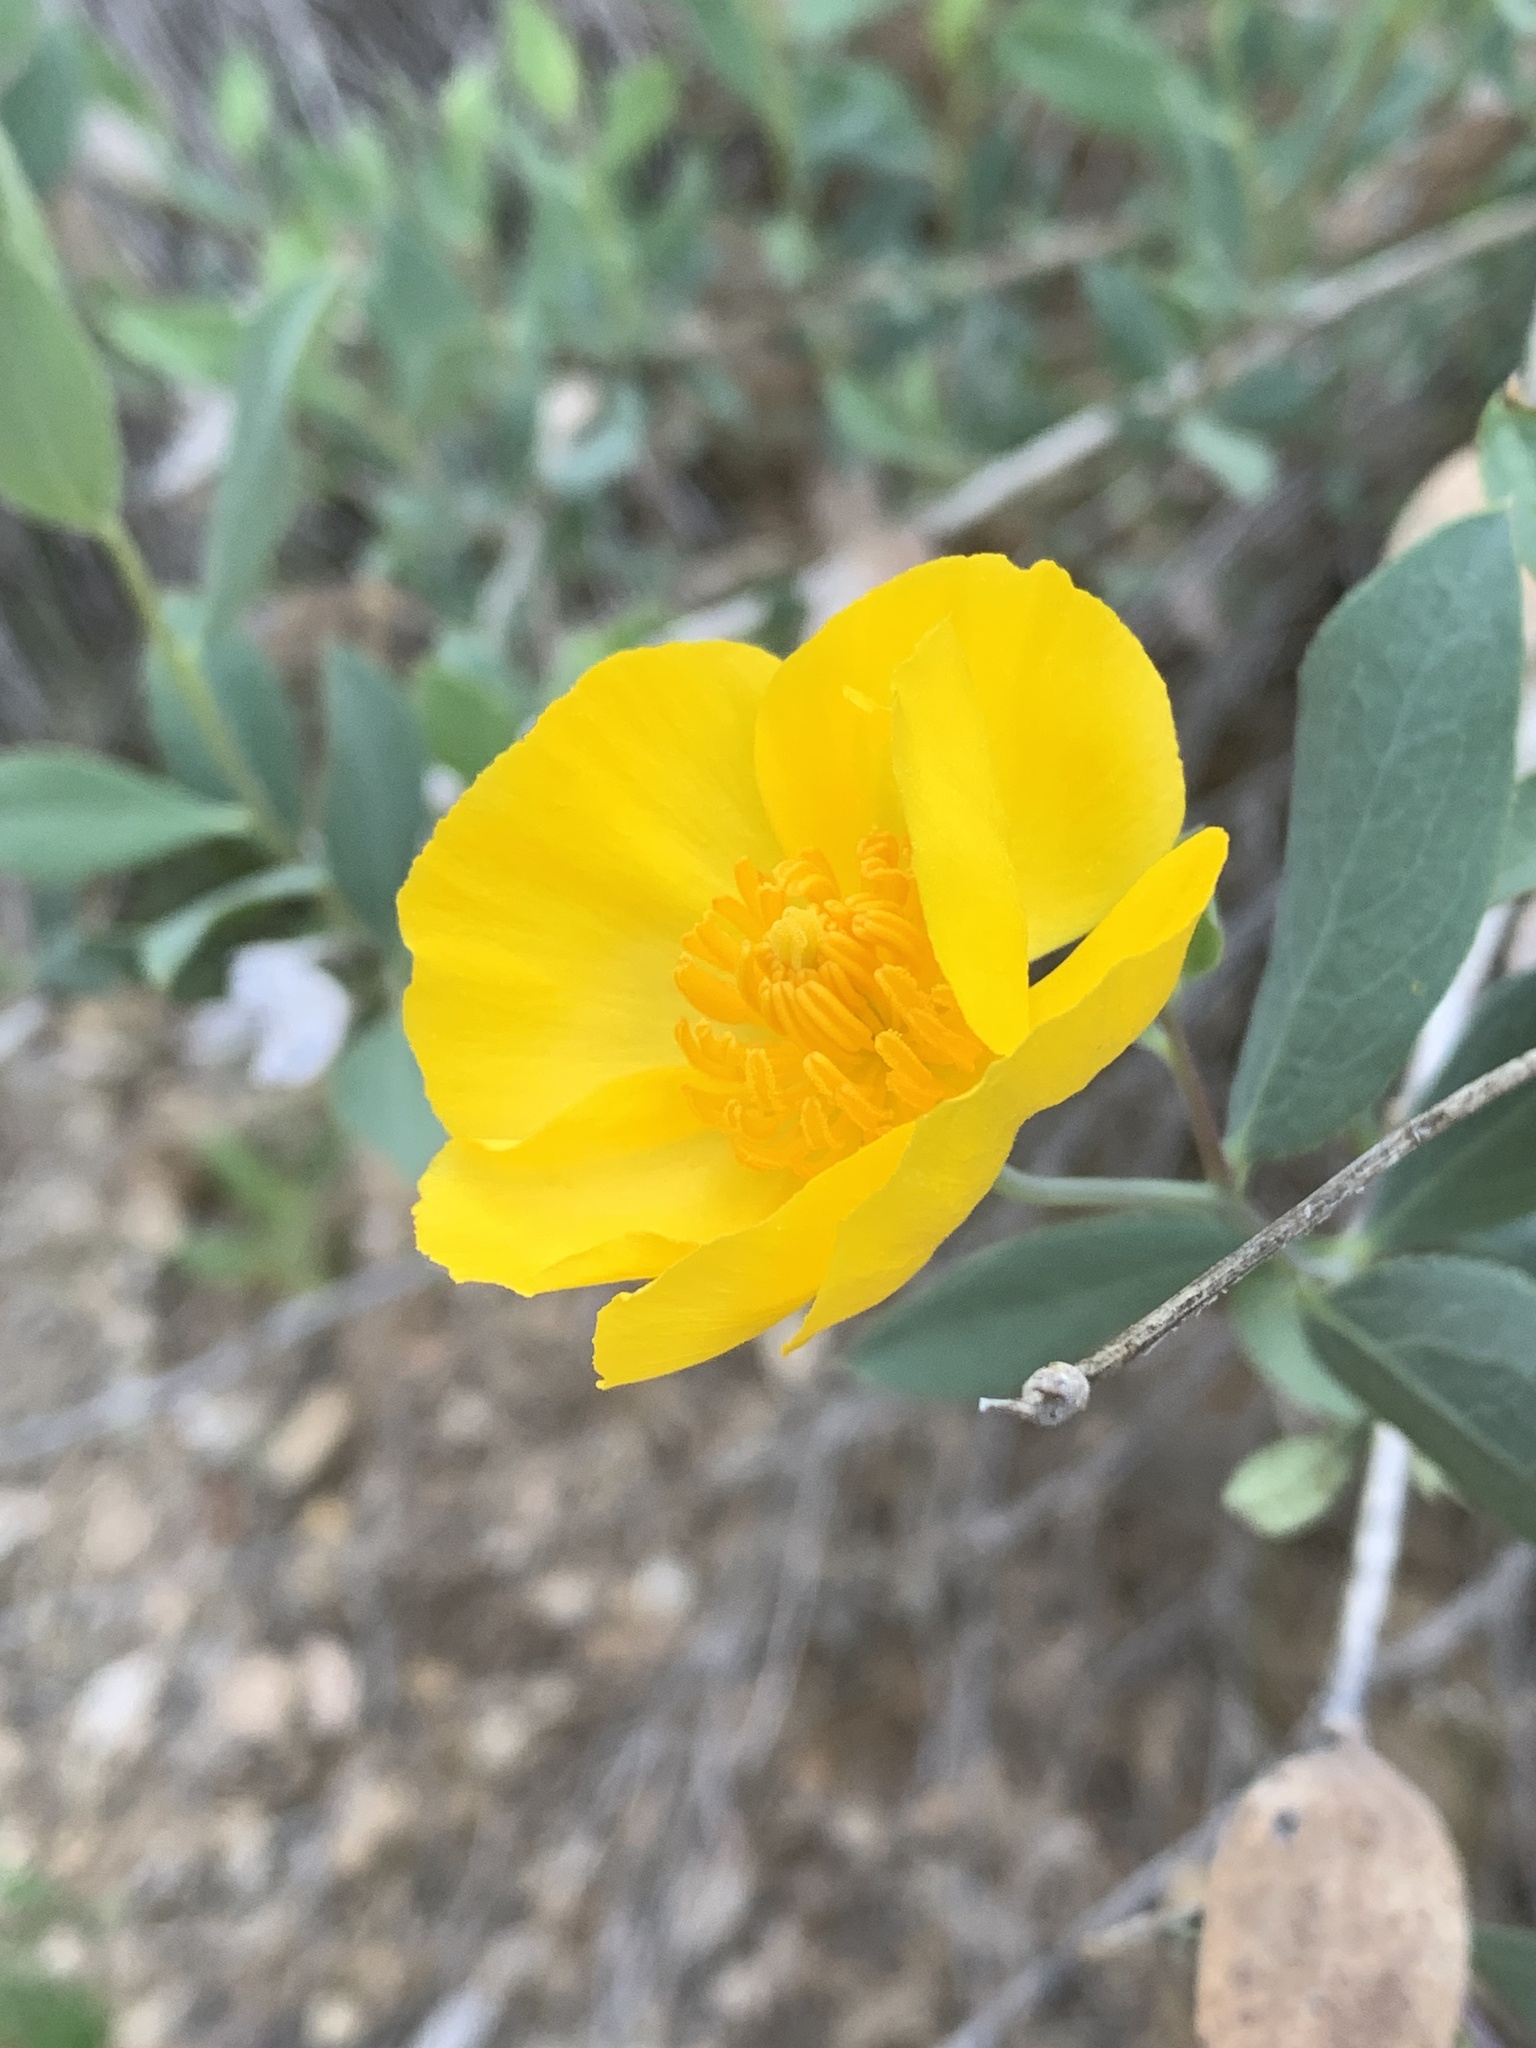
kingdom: Plantae
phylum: Tracheophyta
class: Magnoliopsida
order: Ranunculales
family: Papaveraceae
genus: Dendromecon
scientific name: Dendromecon rigida
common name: Tree poppy
